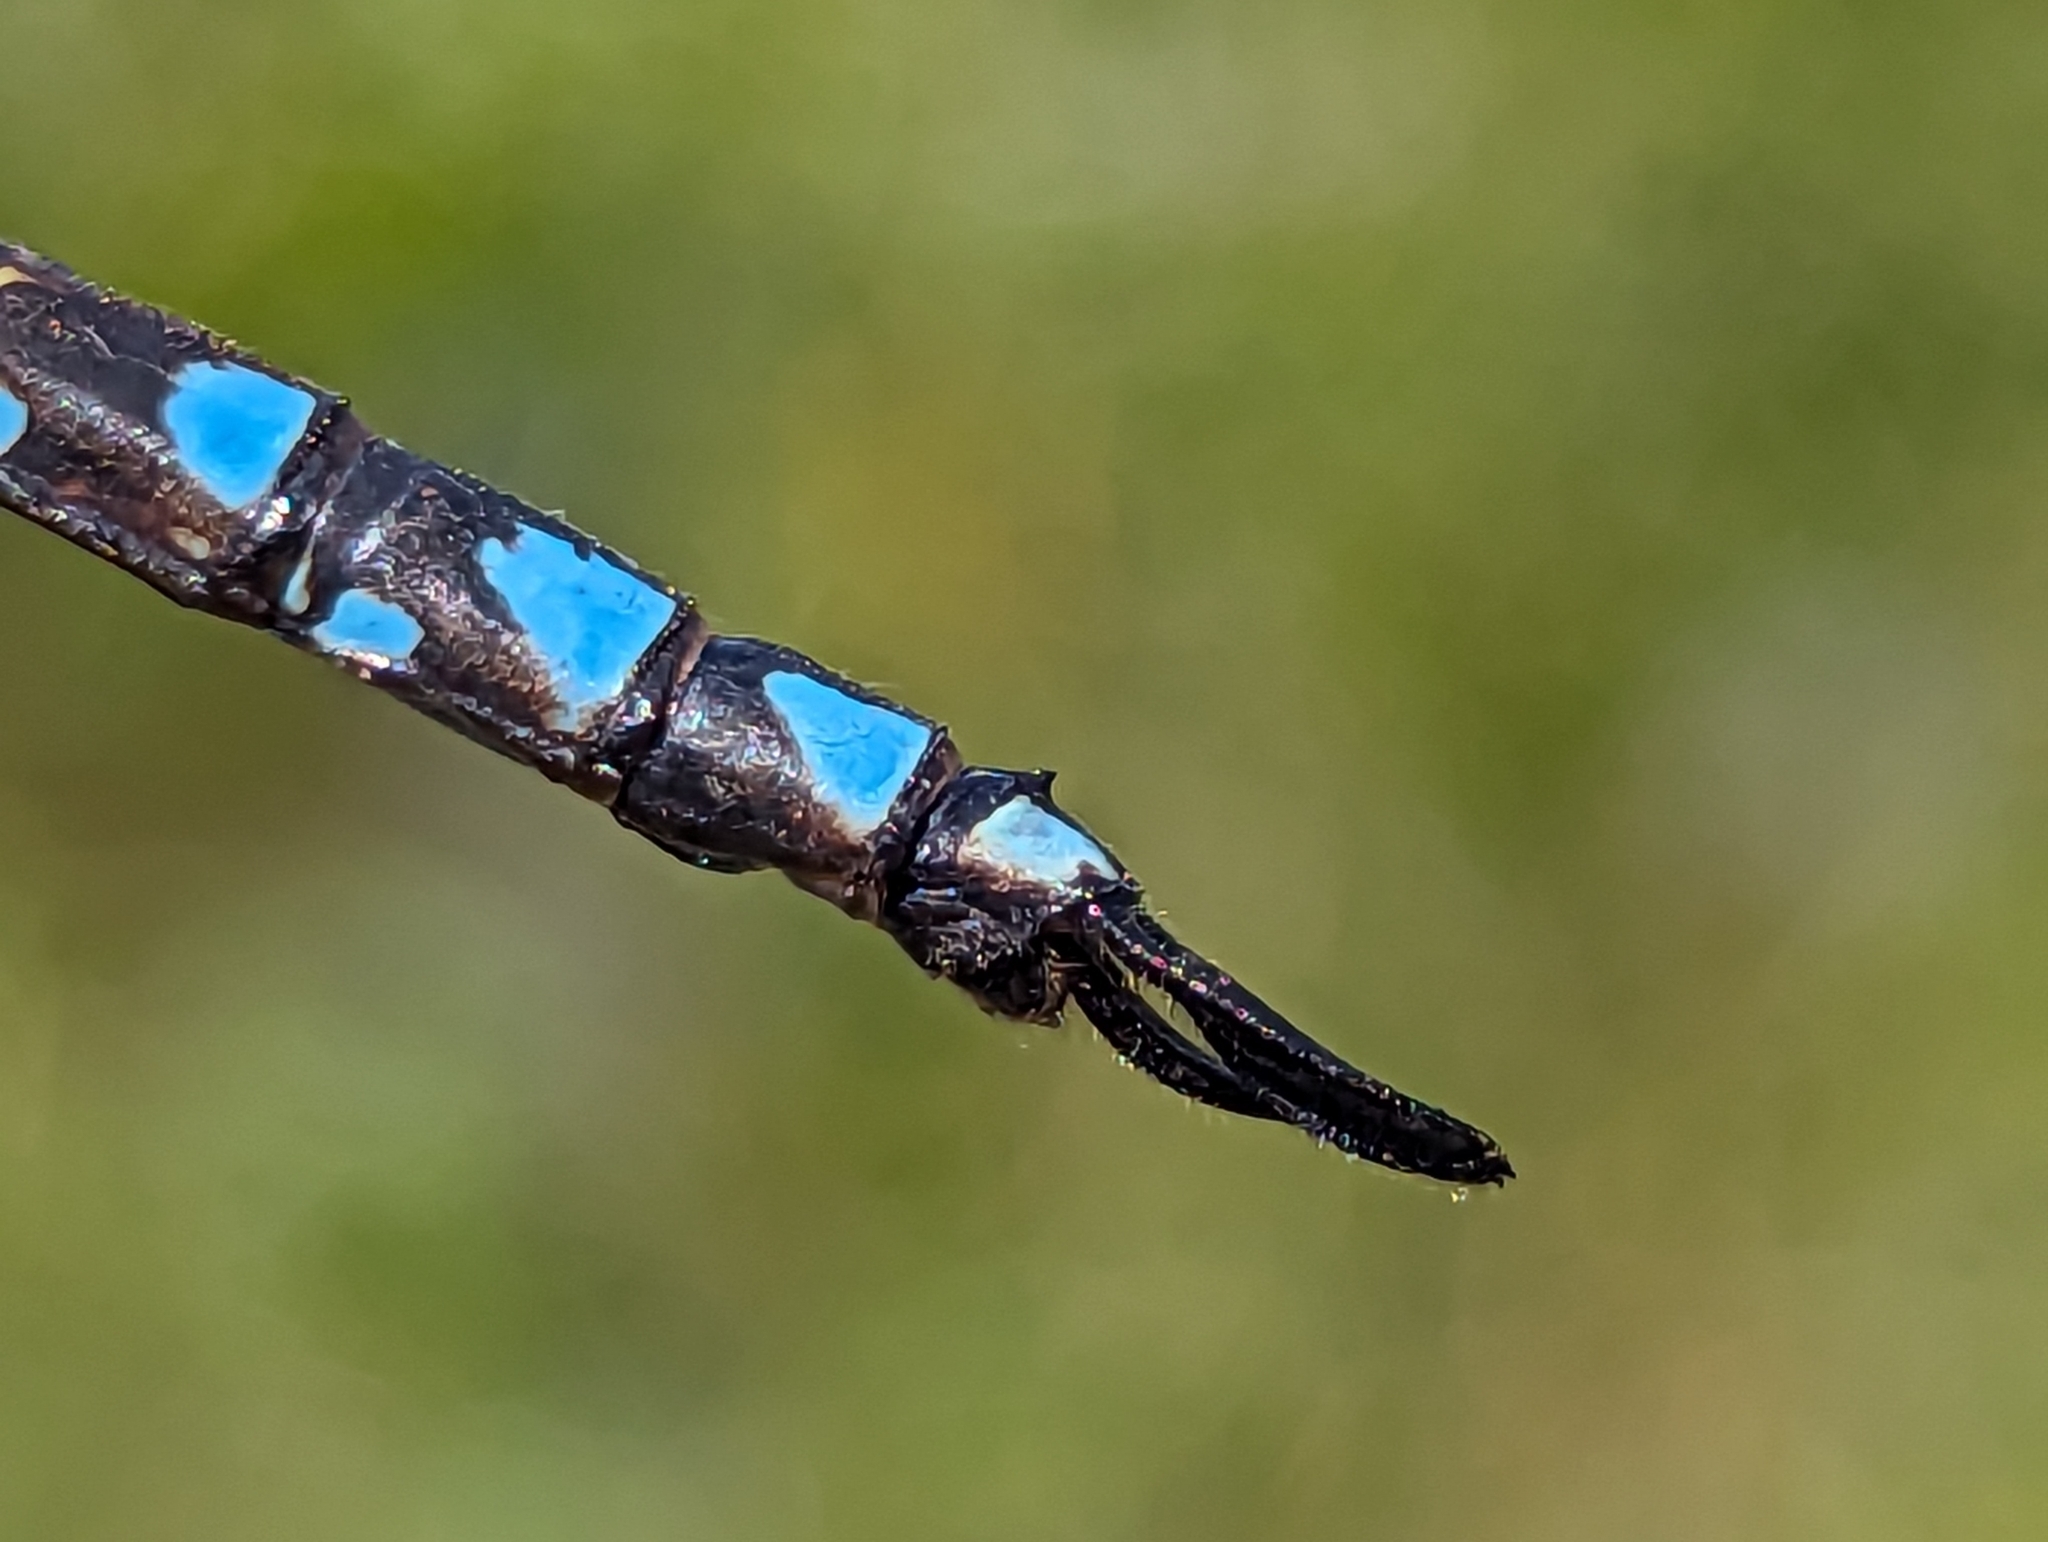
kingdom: Animalia
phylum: Arthropoda
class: Insecta
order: Odonata
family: Aeshnidae
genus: Aeshna
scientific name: Aeshna canadensis
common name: Canada darner
